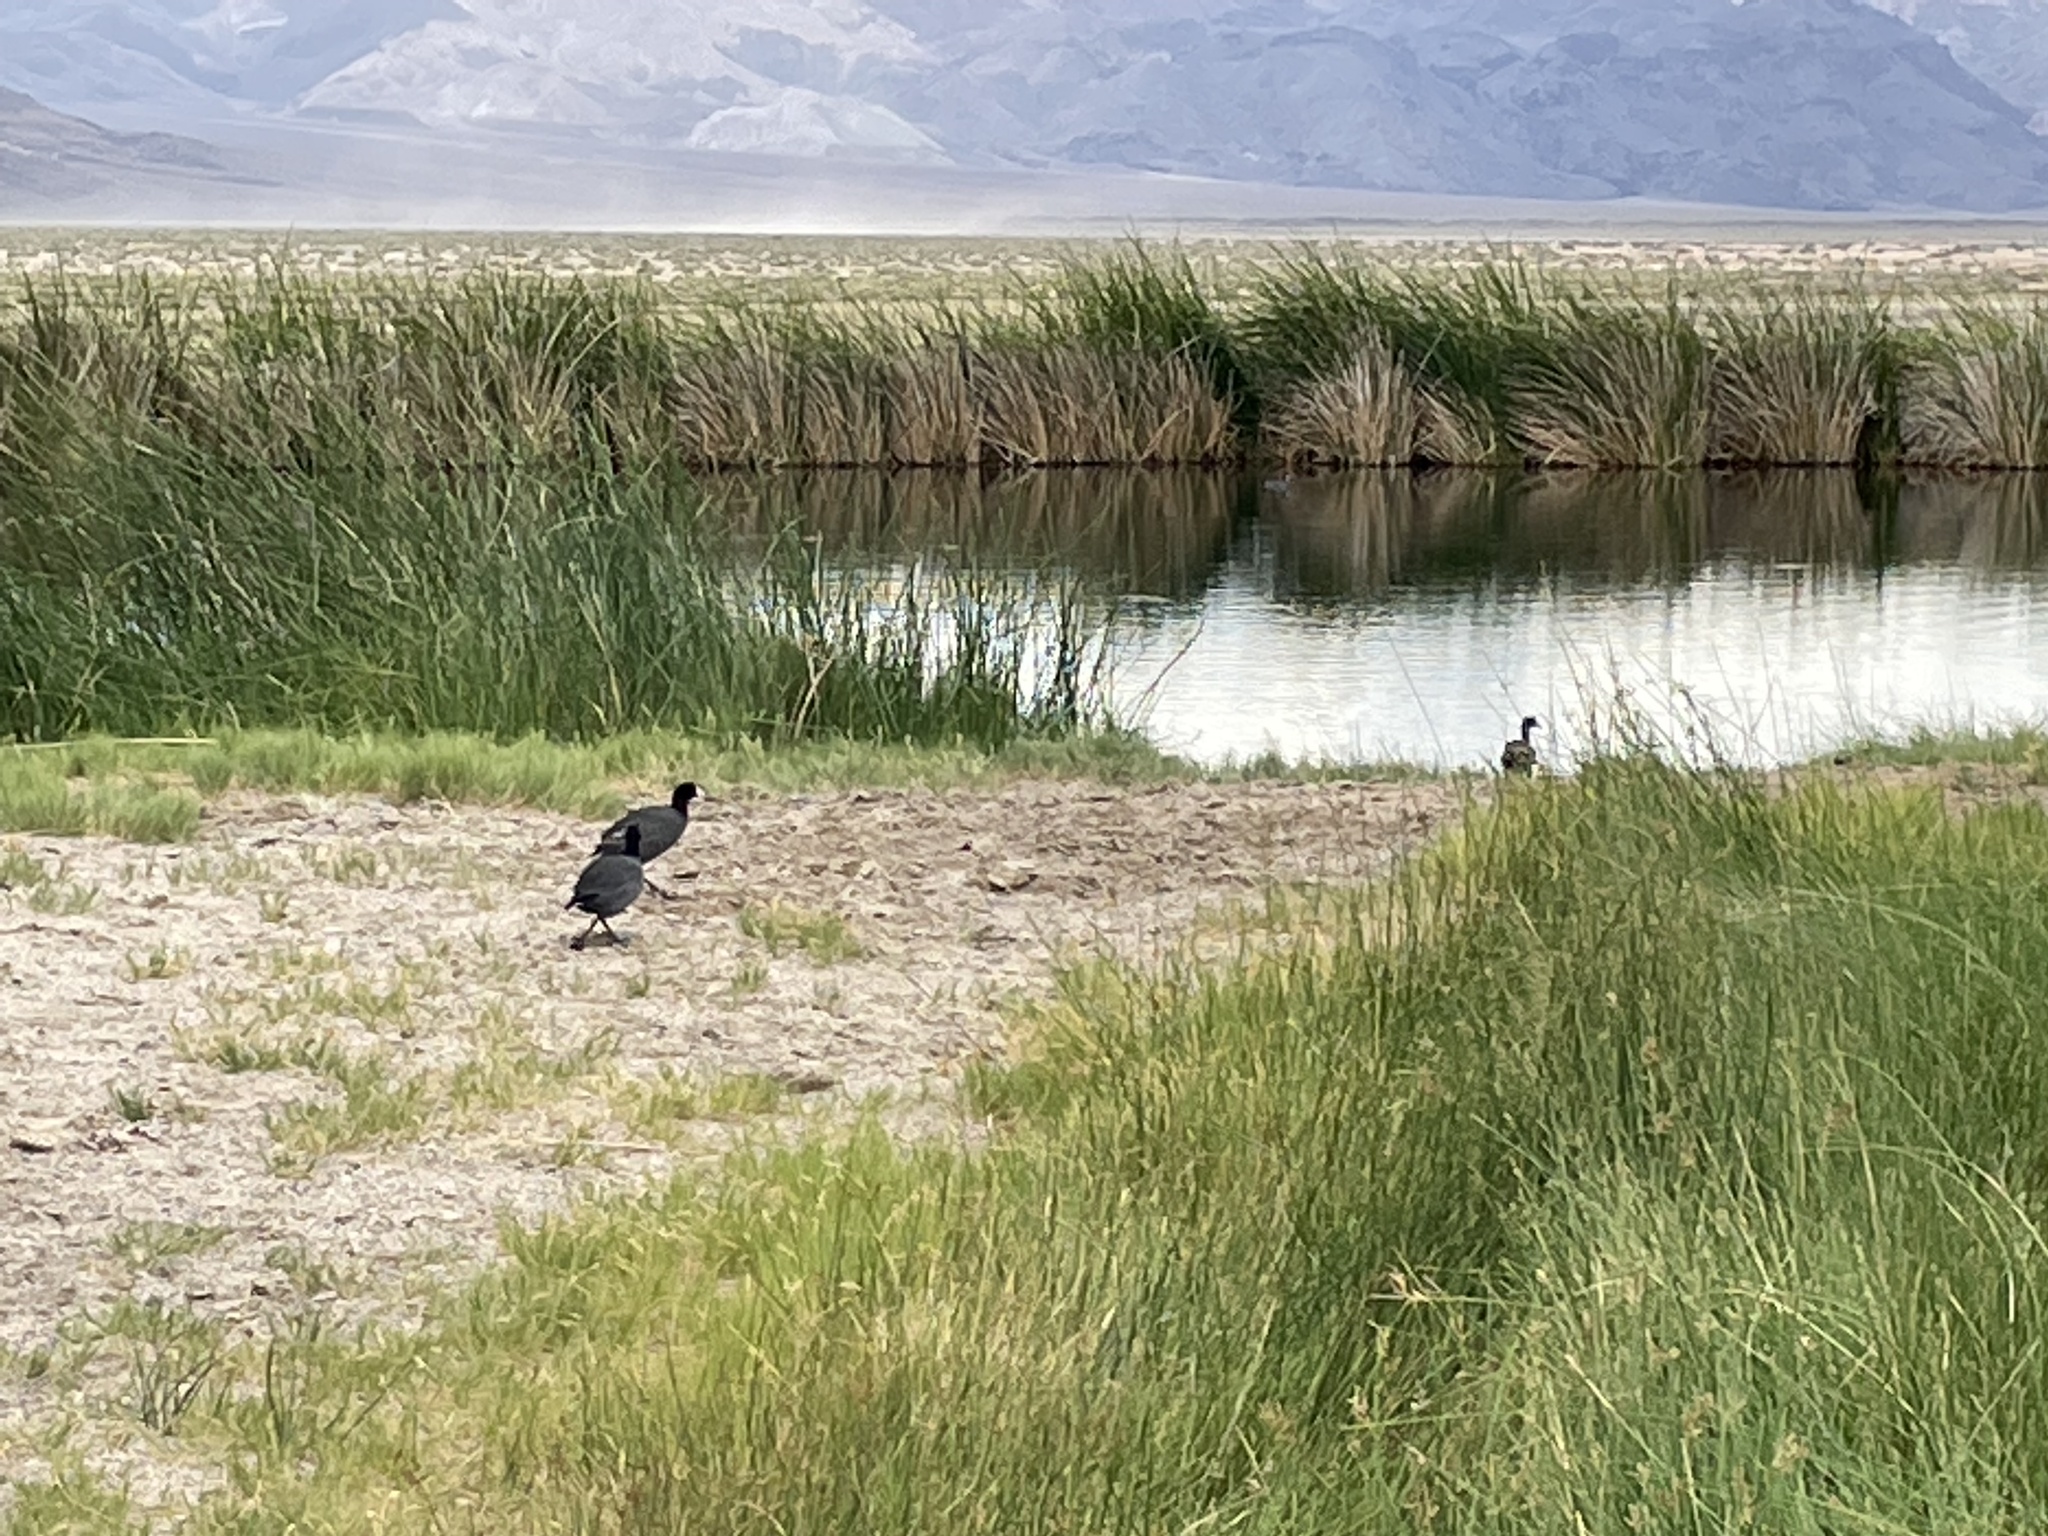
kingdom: Animalia
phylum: Chordata
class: Aves
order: Gruiformes
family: Rallidae
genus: Fulica
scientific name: Fulica americana
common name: American coot
